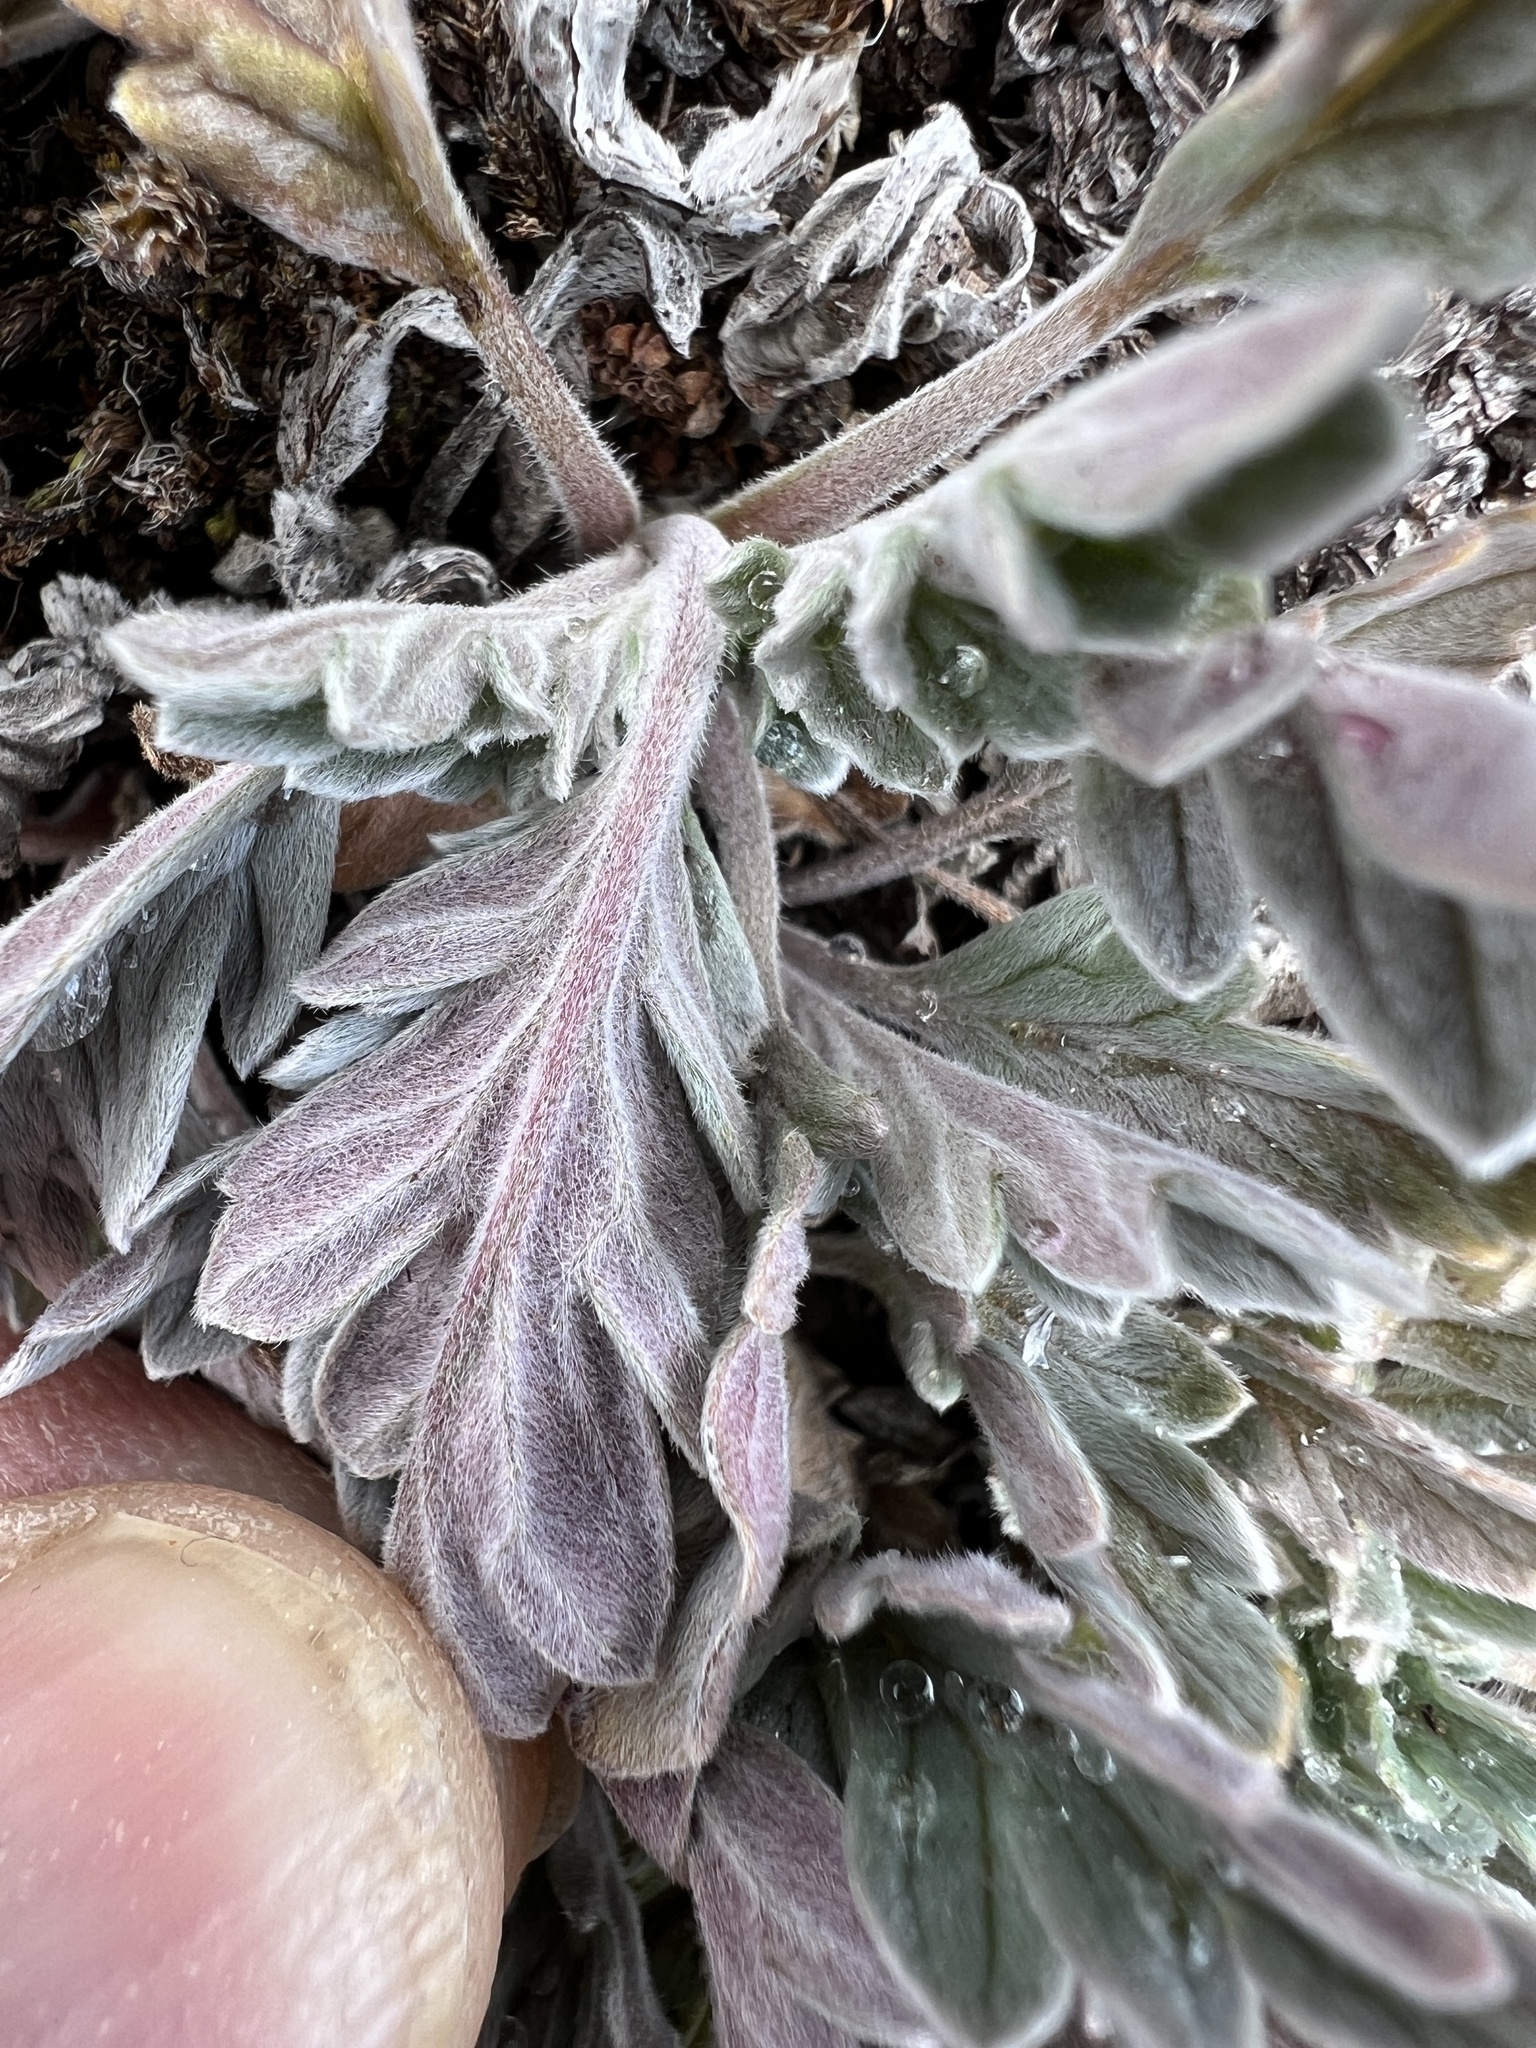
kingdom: Plantae
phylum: Tracheophyta
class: Magnoliopsida
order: Boraginales
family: Hydrophyllaceae
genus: Phacelia
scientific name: Phacelia sericea
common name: Silky phacelia
